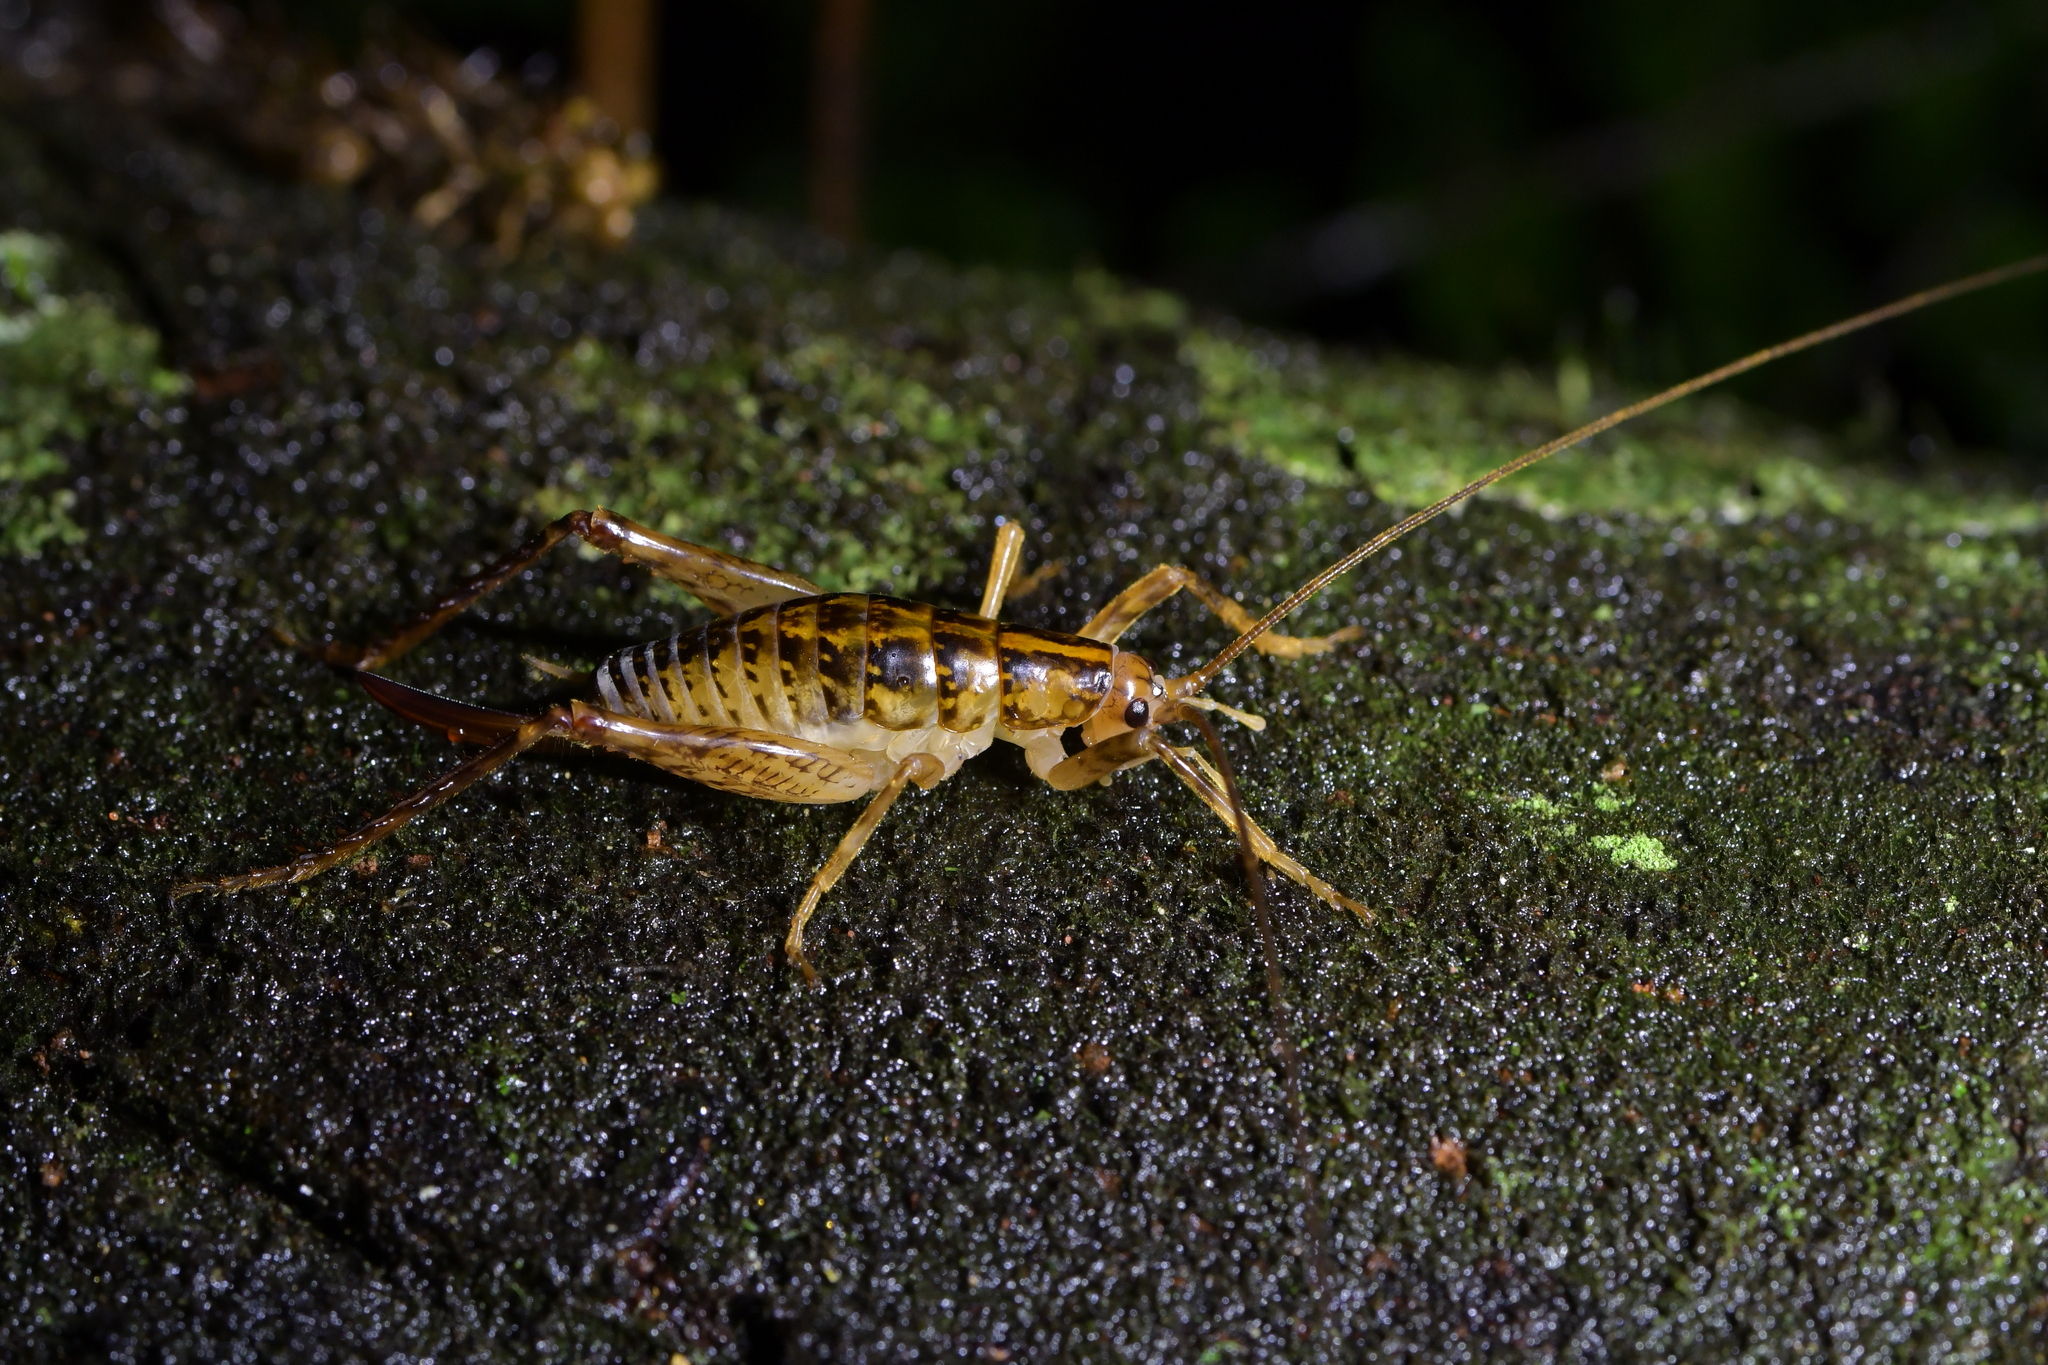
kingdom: Animalia
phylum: Arthropoda
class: Insecta
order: Orthoptera
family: Rhaphidophoridae
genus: Talitropsis
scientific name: Talitropsis sedilloti
